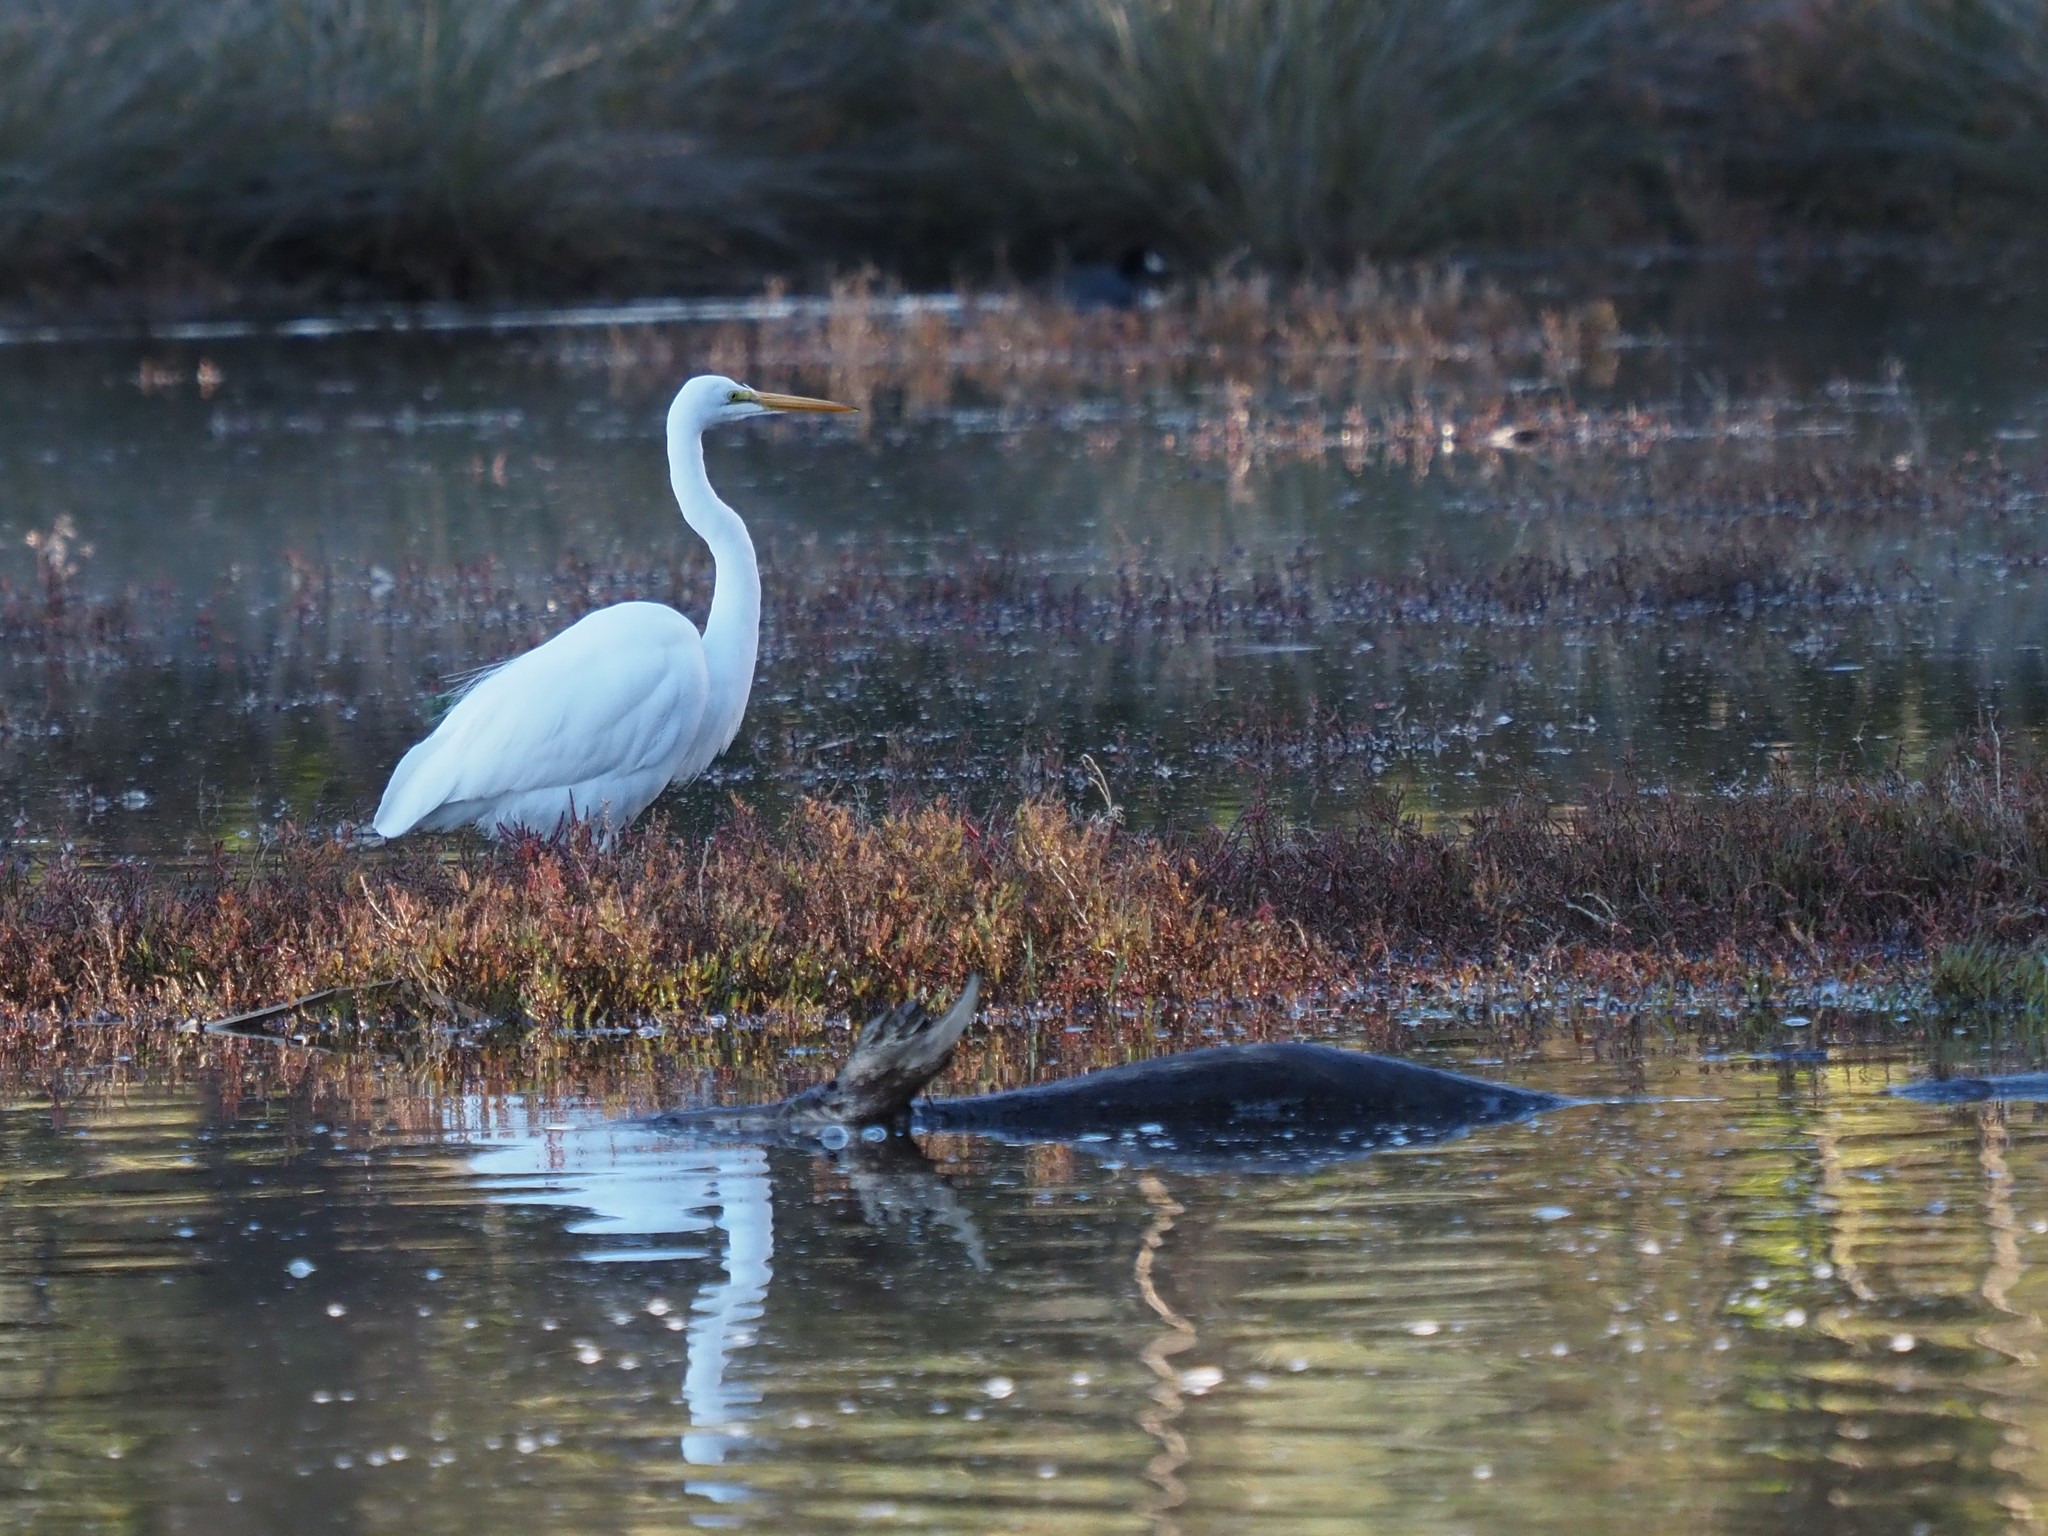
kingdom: Animalia
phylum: Chordata
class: Aves
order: Pelecaniformes
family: Ardeidae
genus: Ardea
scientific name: Ardea alba
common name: Great egret
